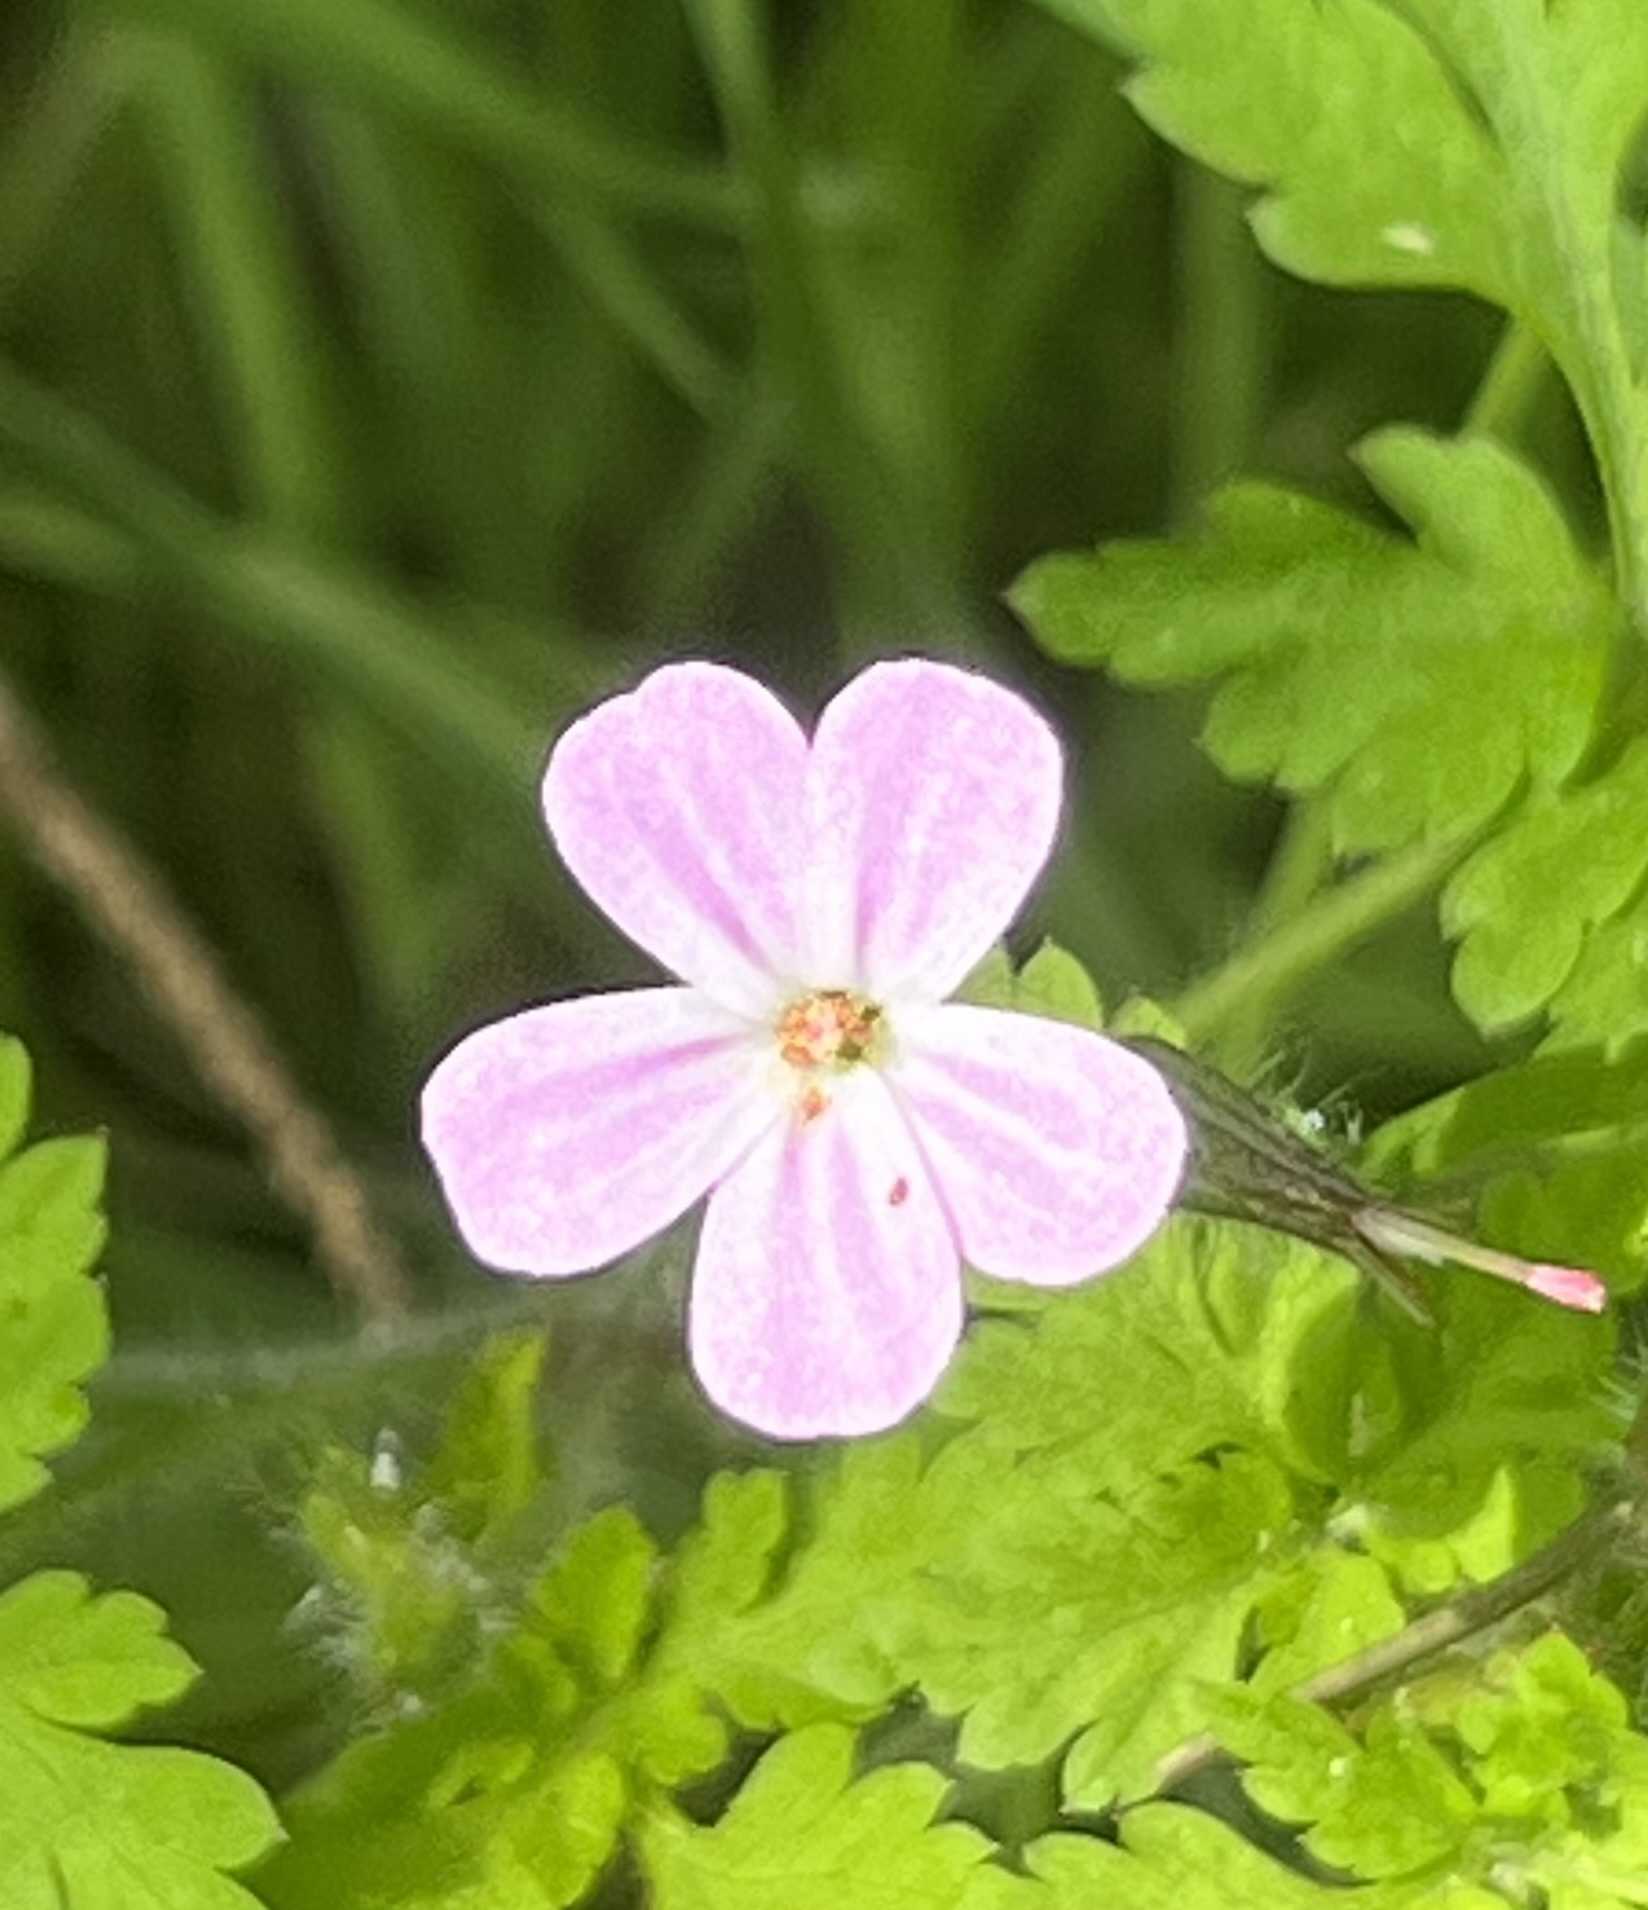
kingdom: Plantae
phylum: Tracheophyta
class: Magnoliopsida
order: Geraniales
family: Geraniaceae
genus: Geranium
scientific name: Geranium robertianum
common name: Herb-robert
